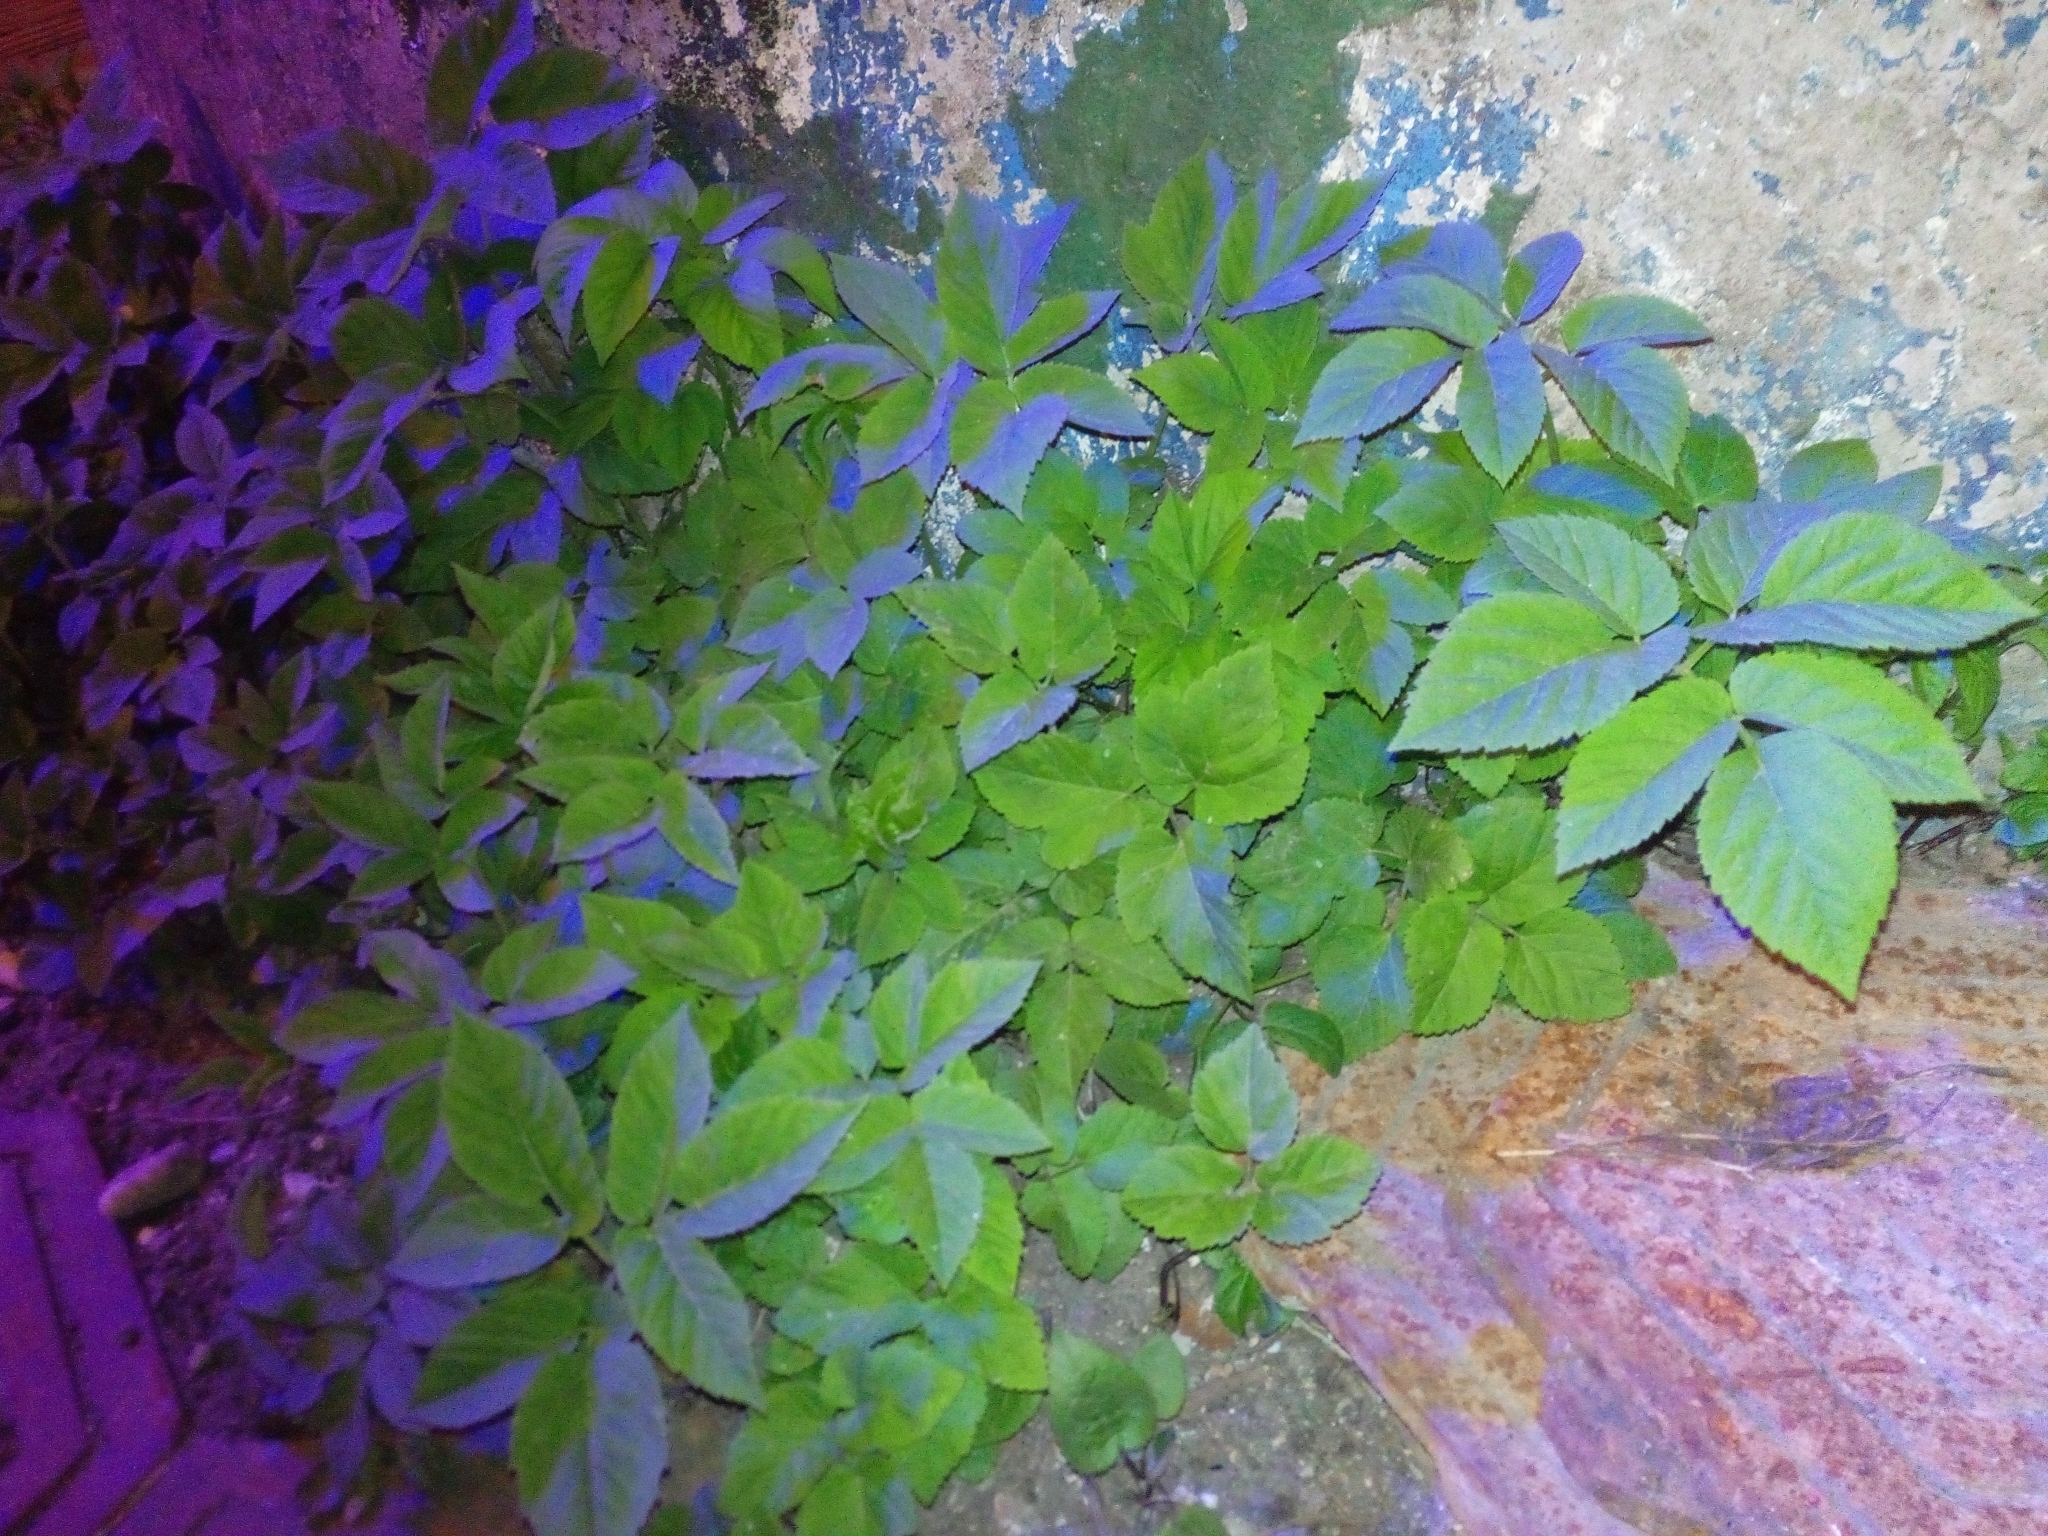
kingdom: Plantae
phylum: Tracheophyta
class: Magnoliopsida
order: Apiales
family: Apiaceae
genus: Aegopodium
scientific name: Aegopodium podagraria
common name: Ground-elder
